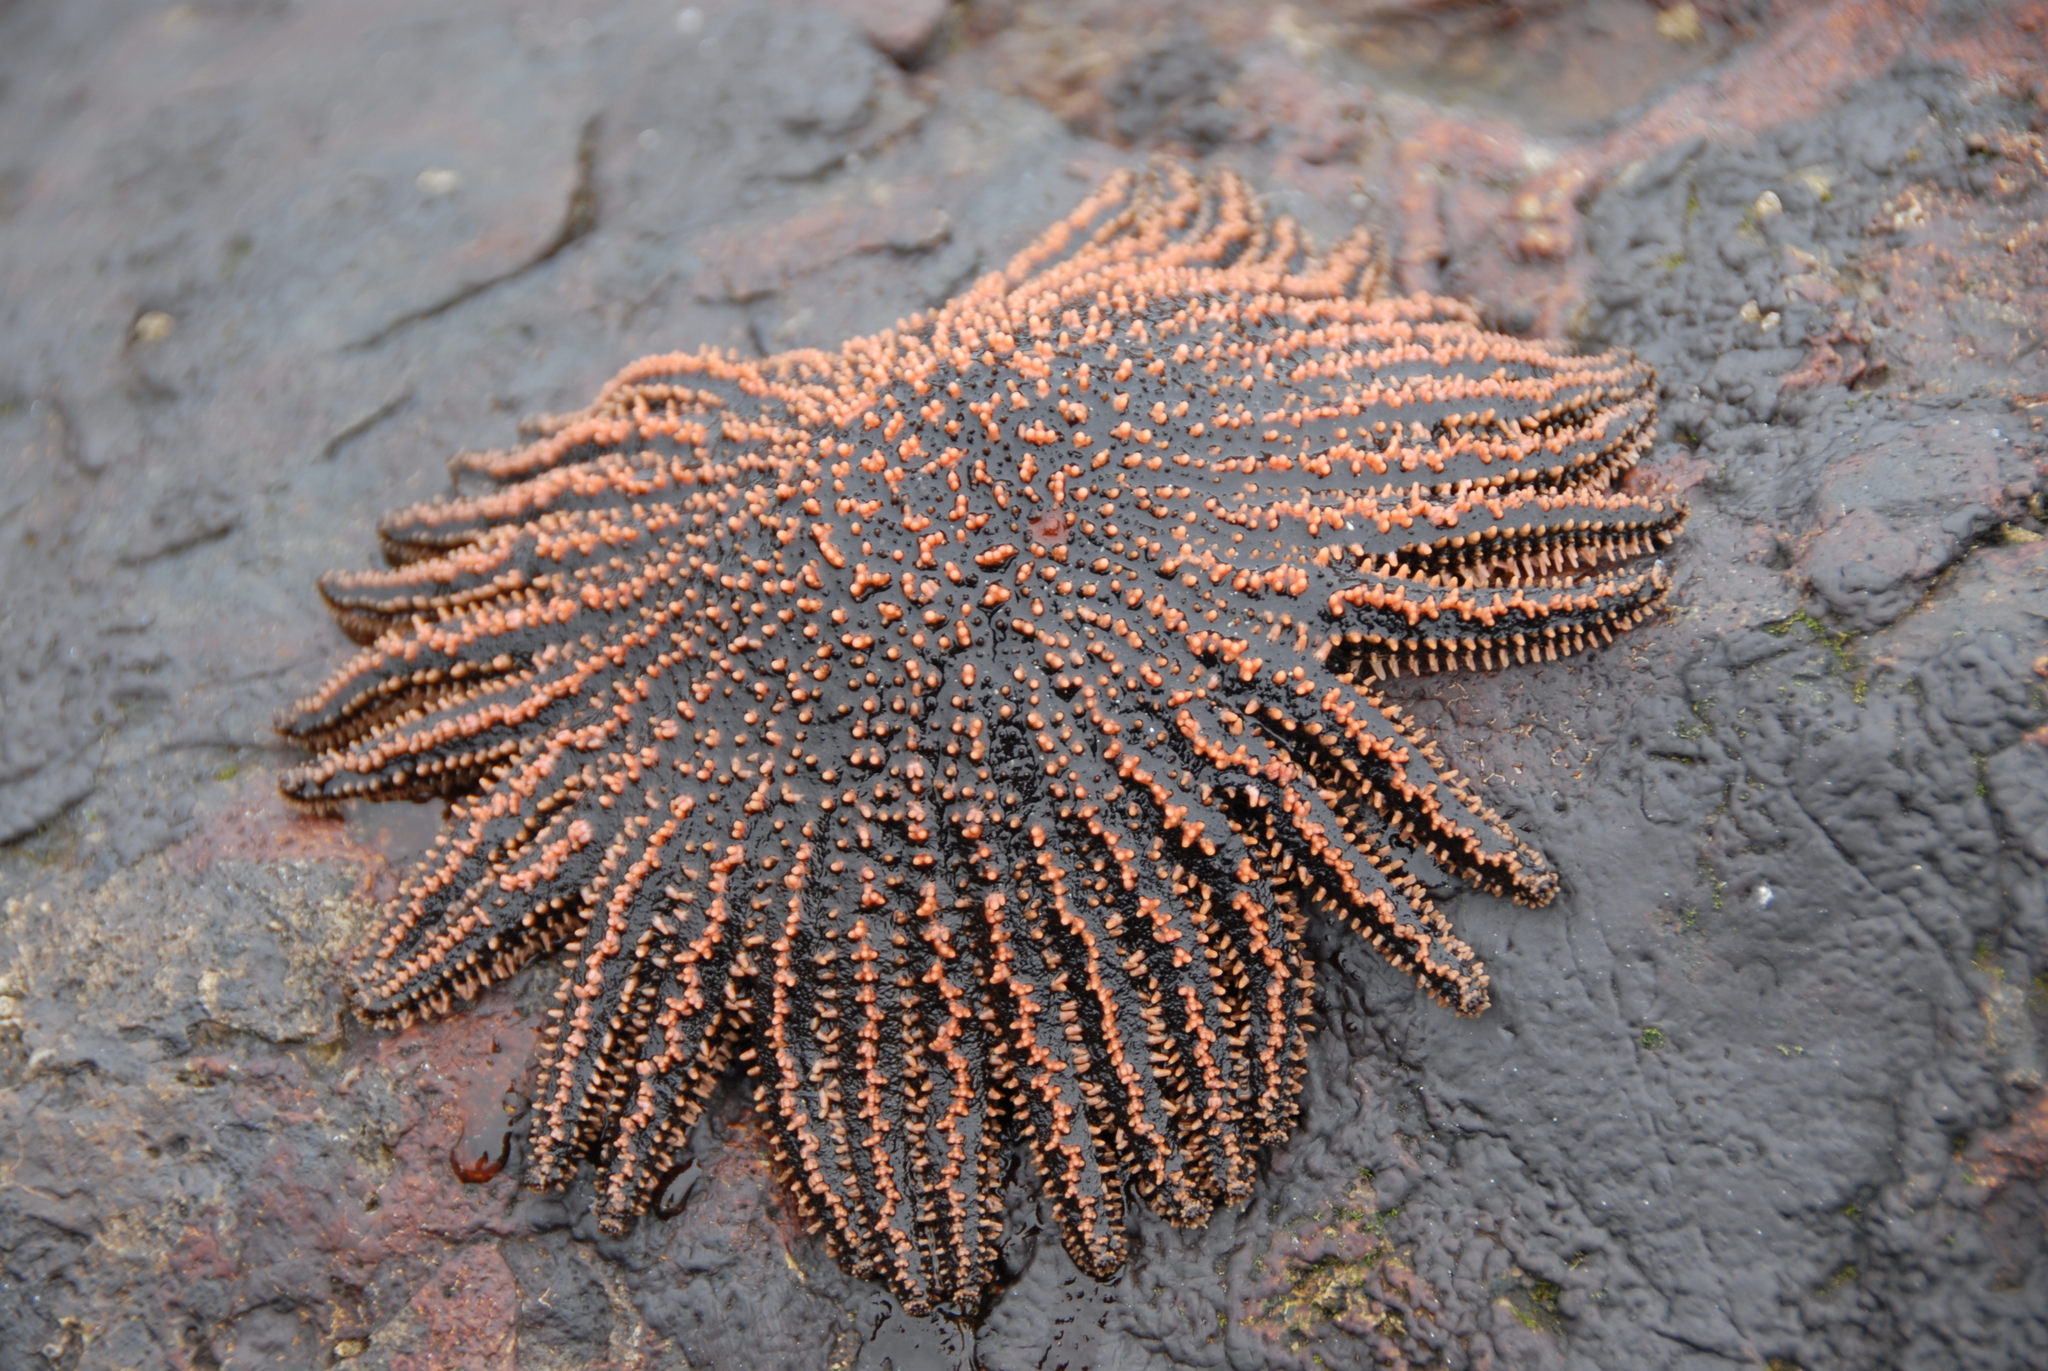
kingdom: Animalia
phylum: Echinodermata
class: Asteroidea
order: Forcipulatida
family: Heliasteridae
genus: Heliaster
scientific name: Heliaster helianthus
